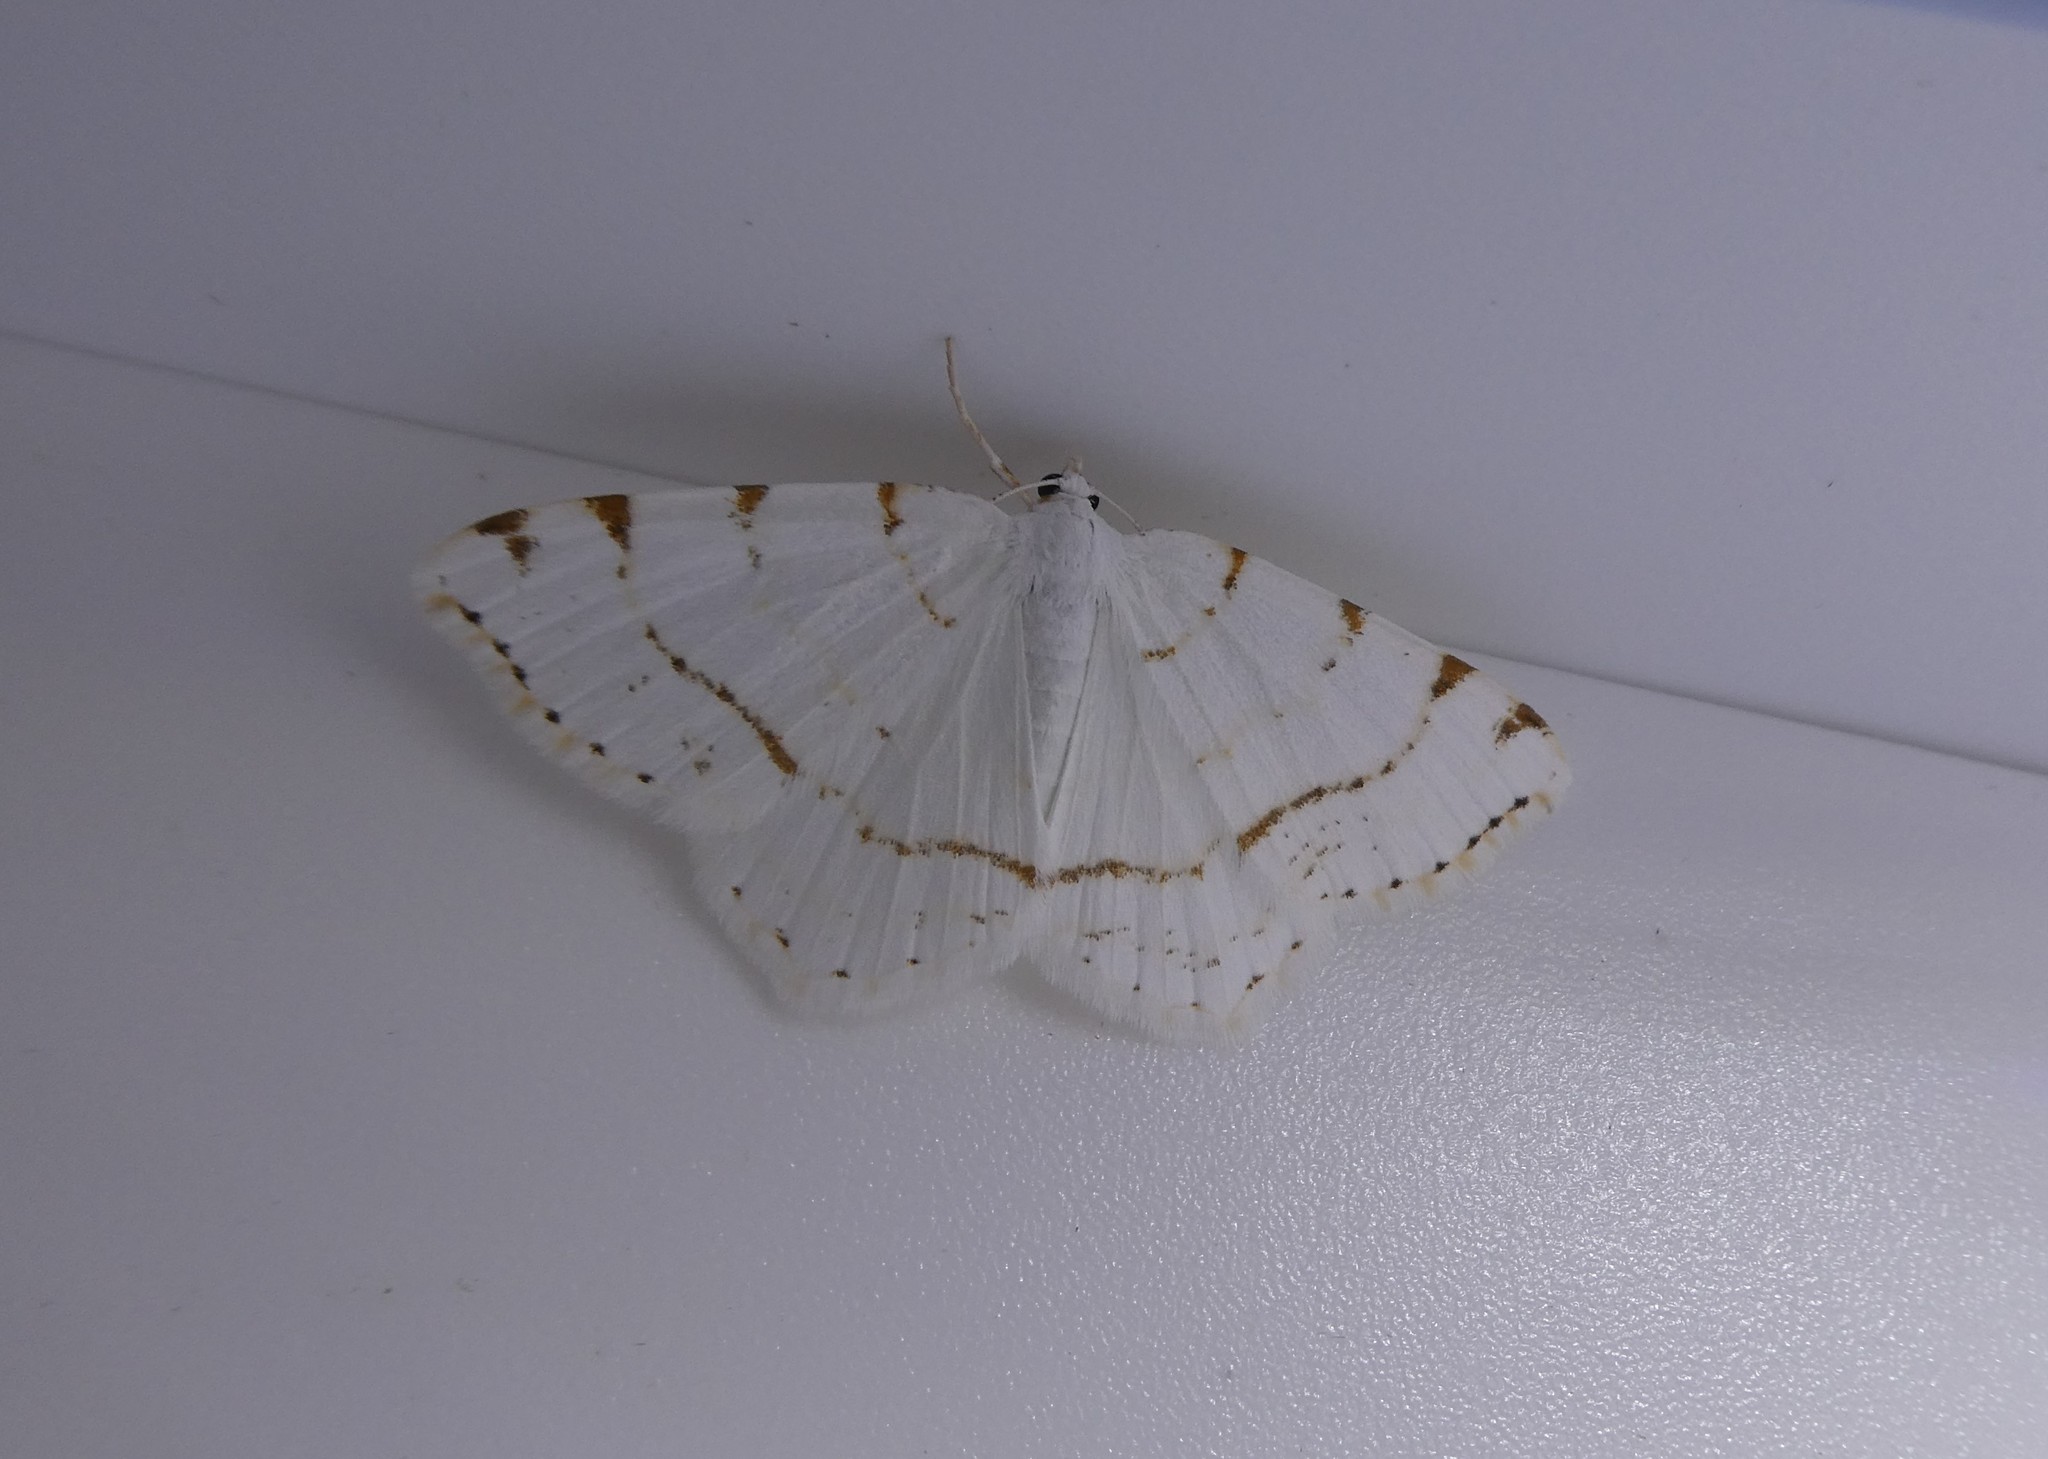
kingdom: Animalia
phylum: Arthropoda
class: Insecta
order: Lepidoptera
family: Geometridae
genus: Macaria
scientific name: Macaria pustularia
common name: Lesser maple spanworm moth
